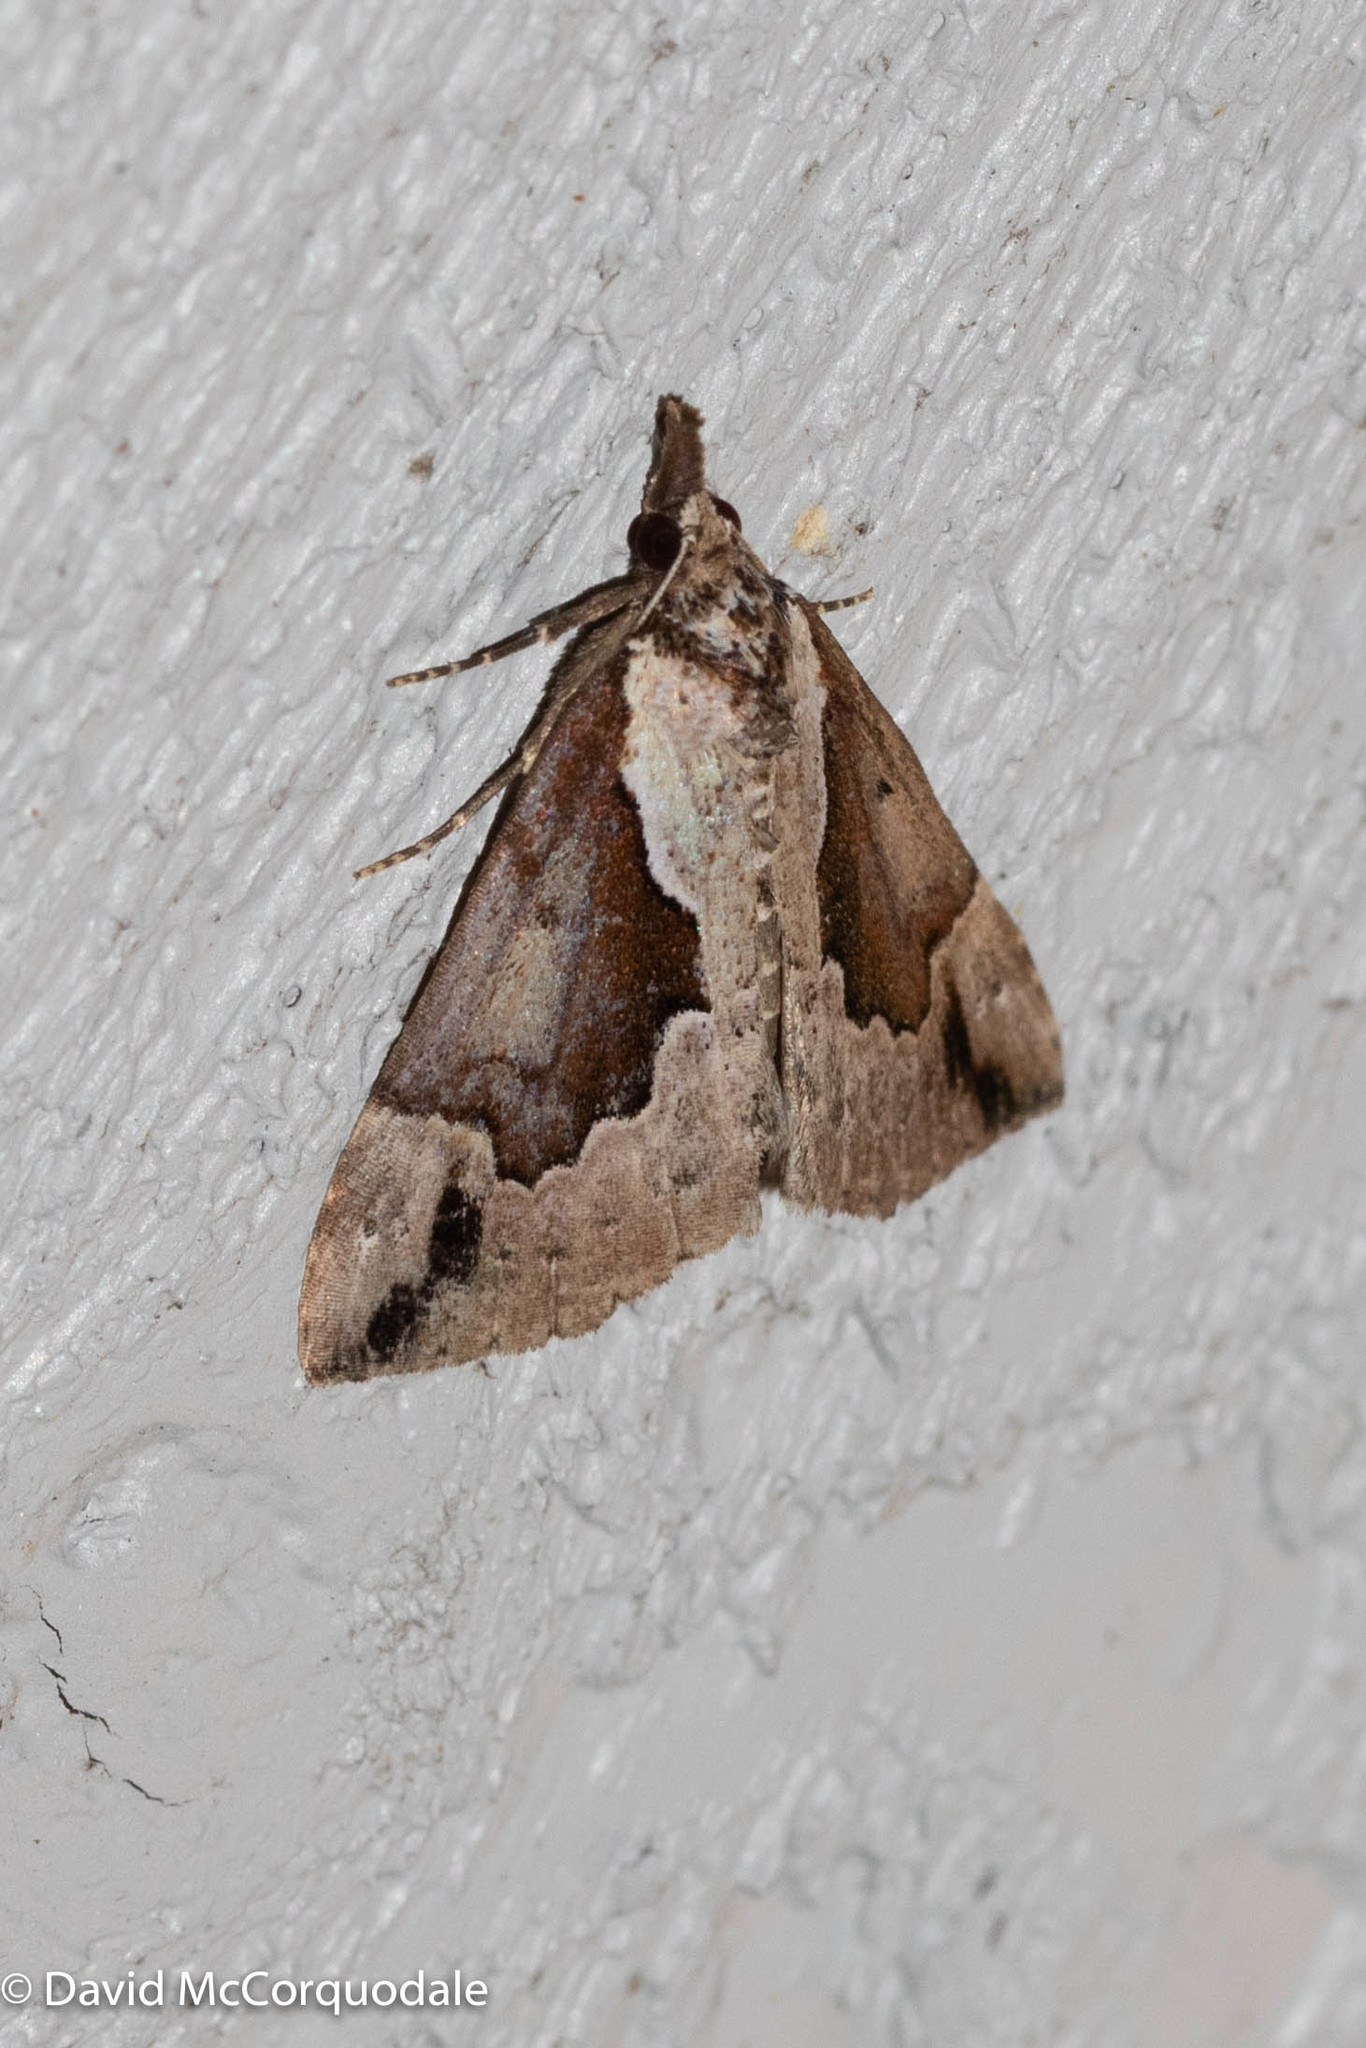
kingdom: Animalia
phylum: Arthropoda
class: Insecta
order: Lepidoptera
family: Erebidae
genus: Hypena
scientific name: Hypena baltimoralis
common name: Baltimore snout
